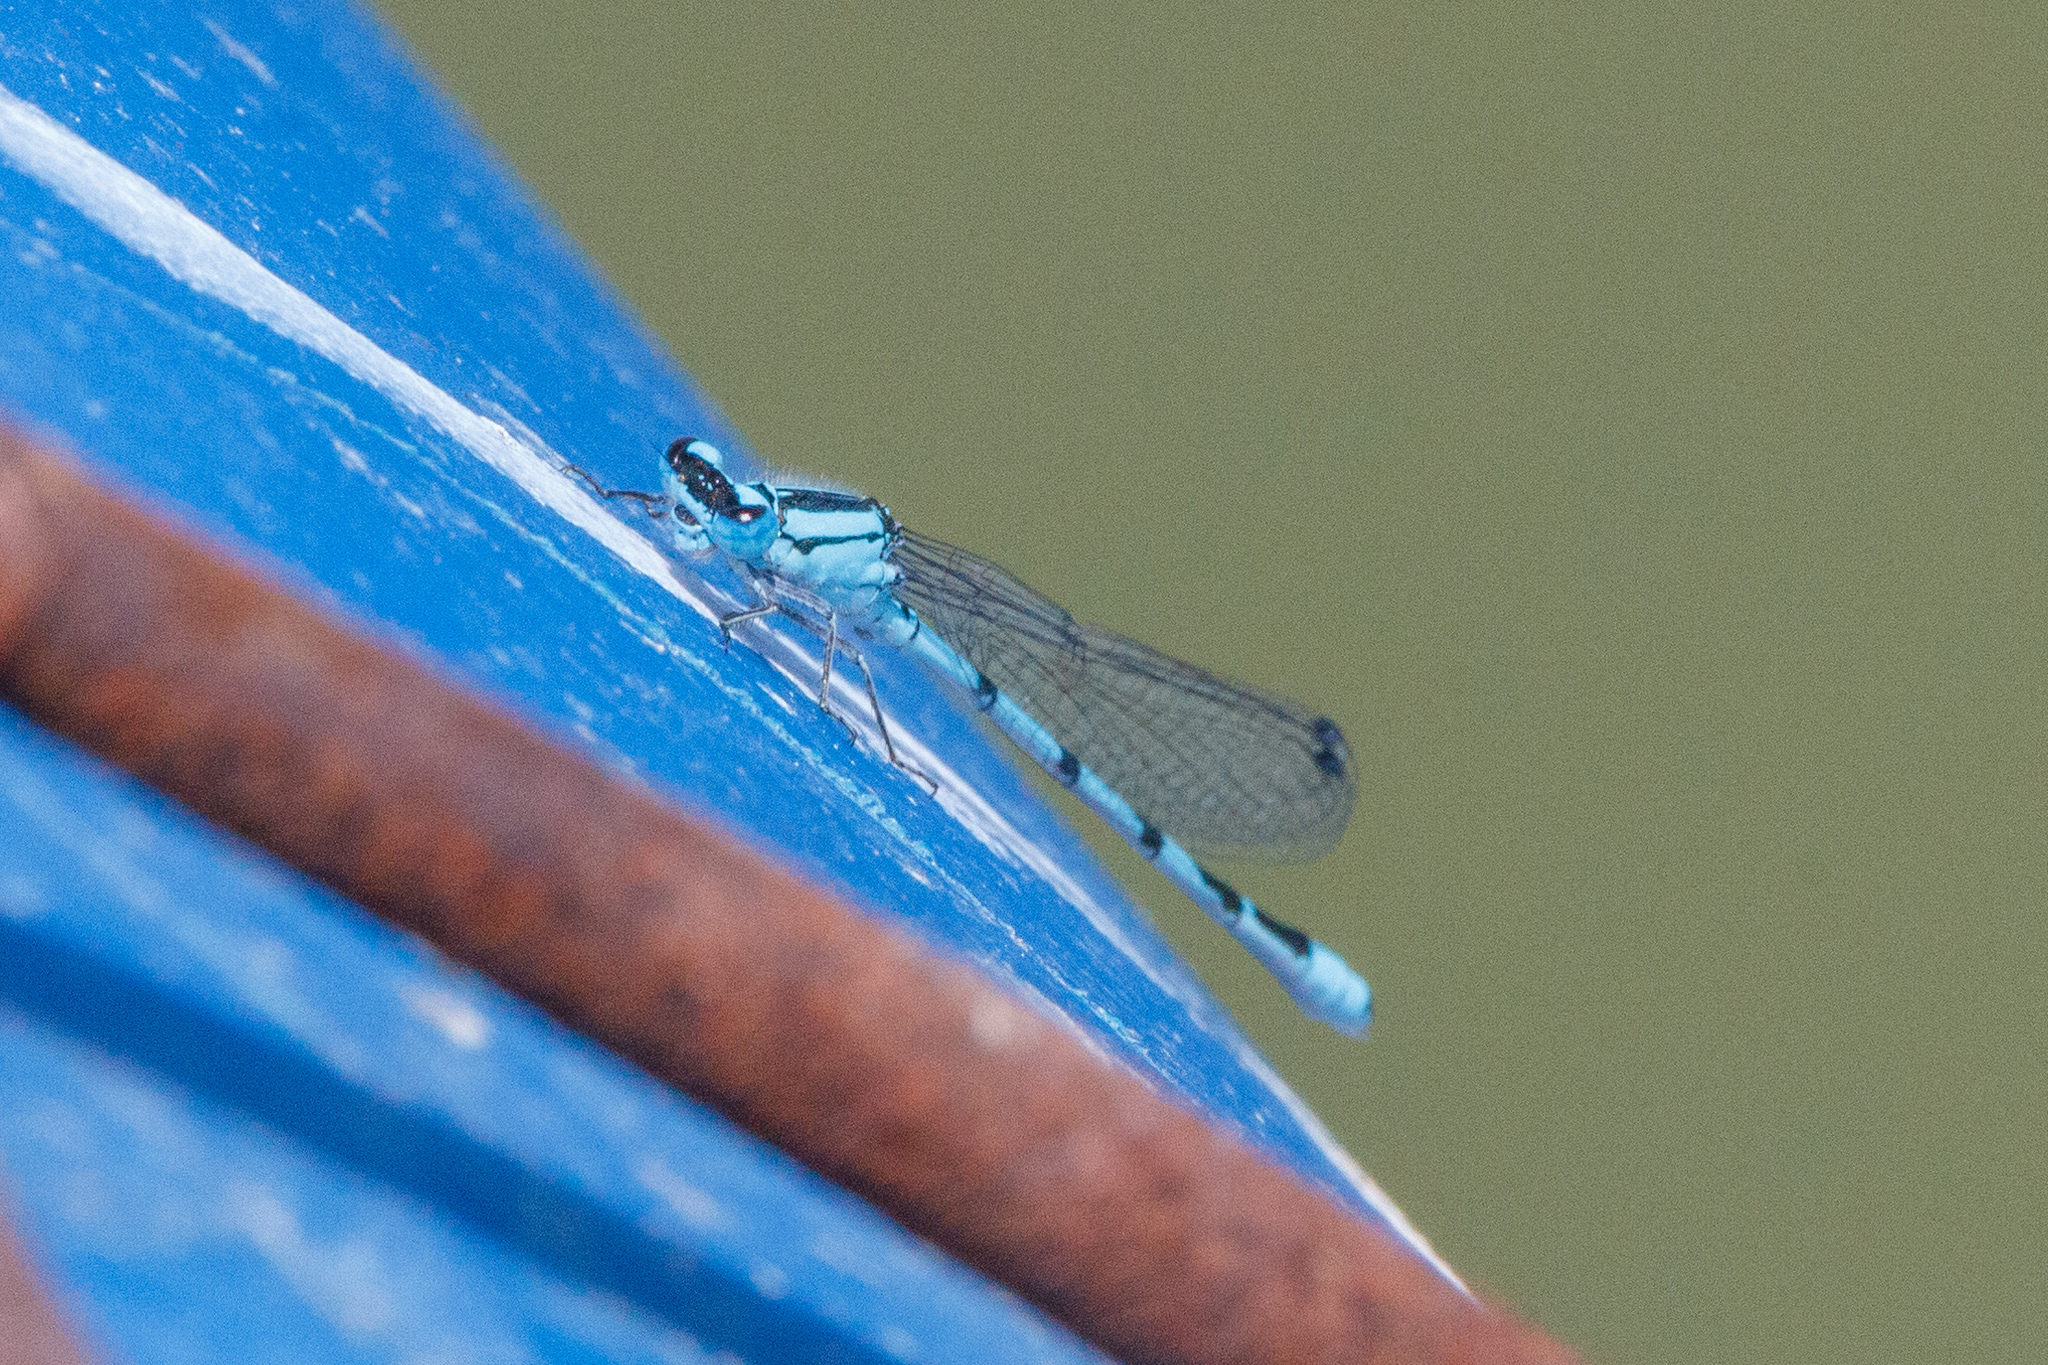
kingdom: Animalia
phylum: Arthropoda
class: Insecta
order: Odonata
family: Coenagrionidae
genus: Enallagma
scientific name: Enallagma cyathigerum
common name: Common blue damselfly
